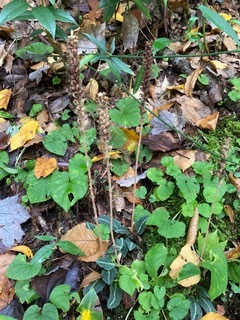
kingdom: Plantae
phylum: Tracheophyta
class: Liliopsida
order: Asparagales
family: Orchidaceae
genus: Goodyera
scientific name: Goodyera pubescens
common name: Downy rattlesnake-plantain
